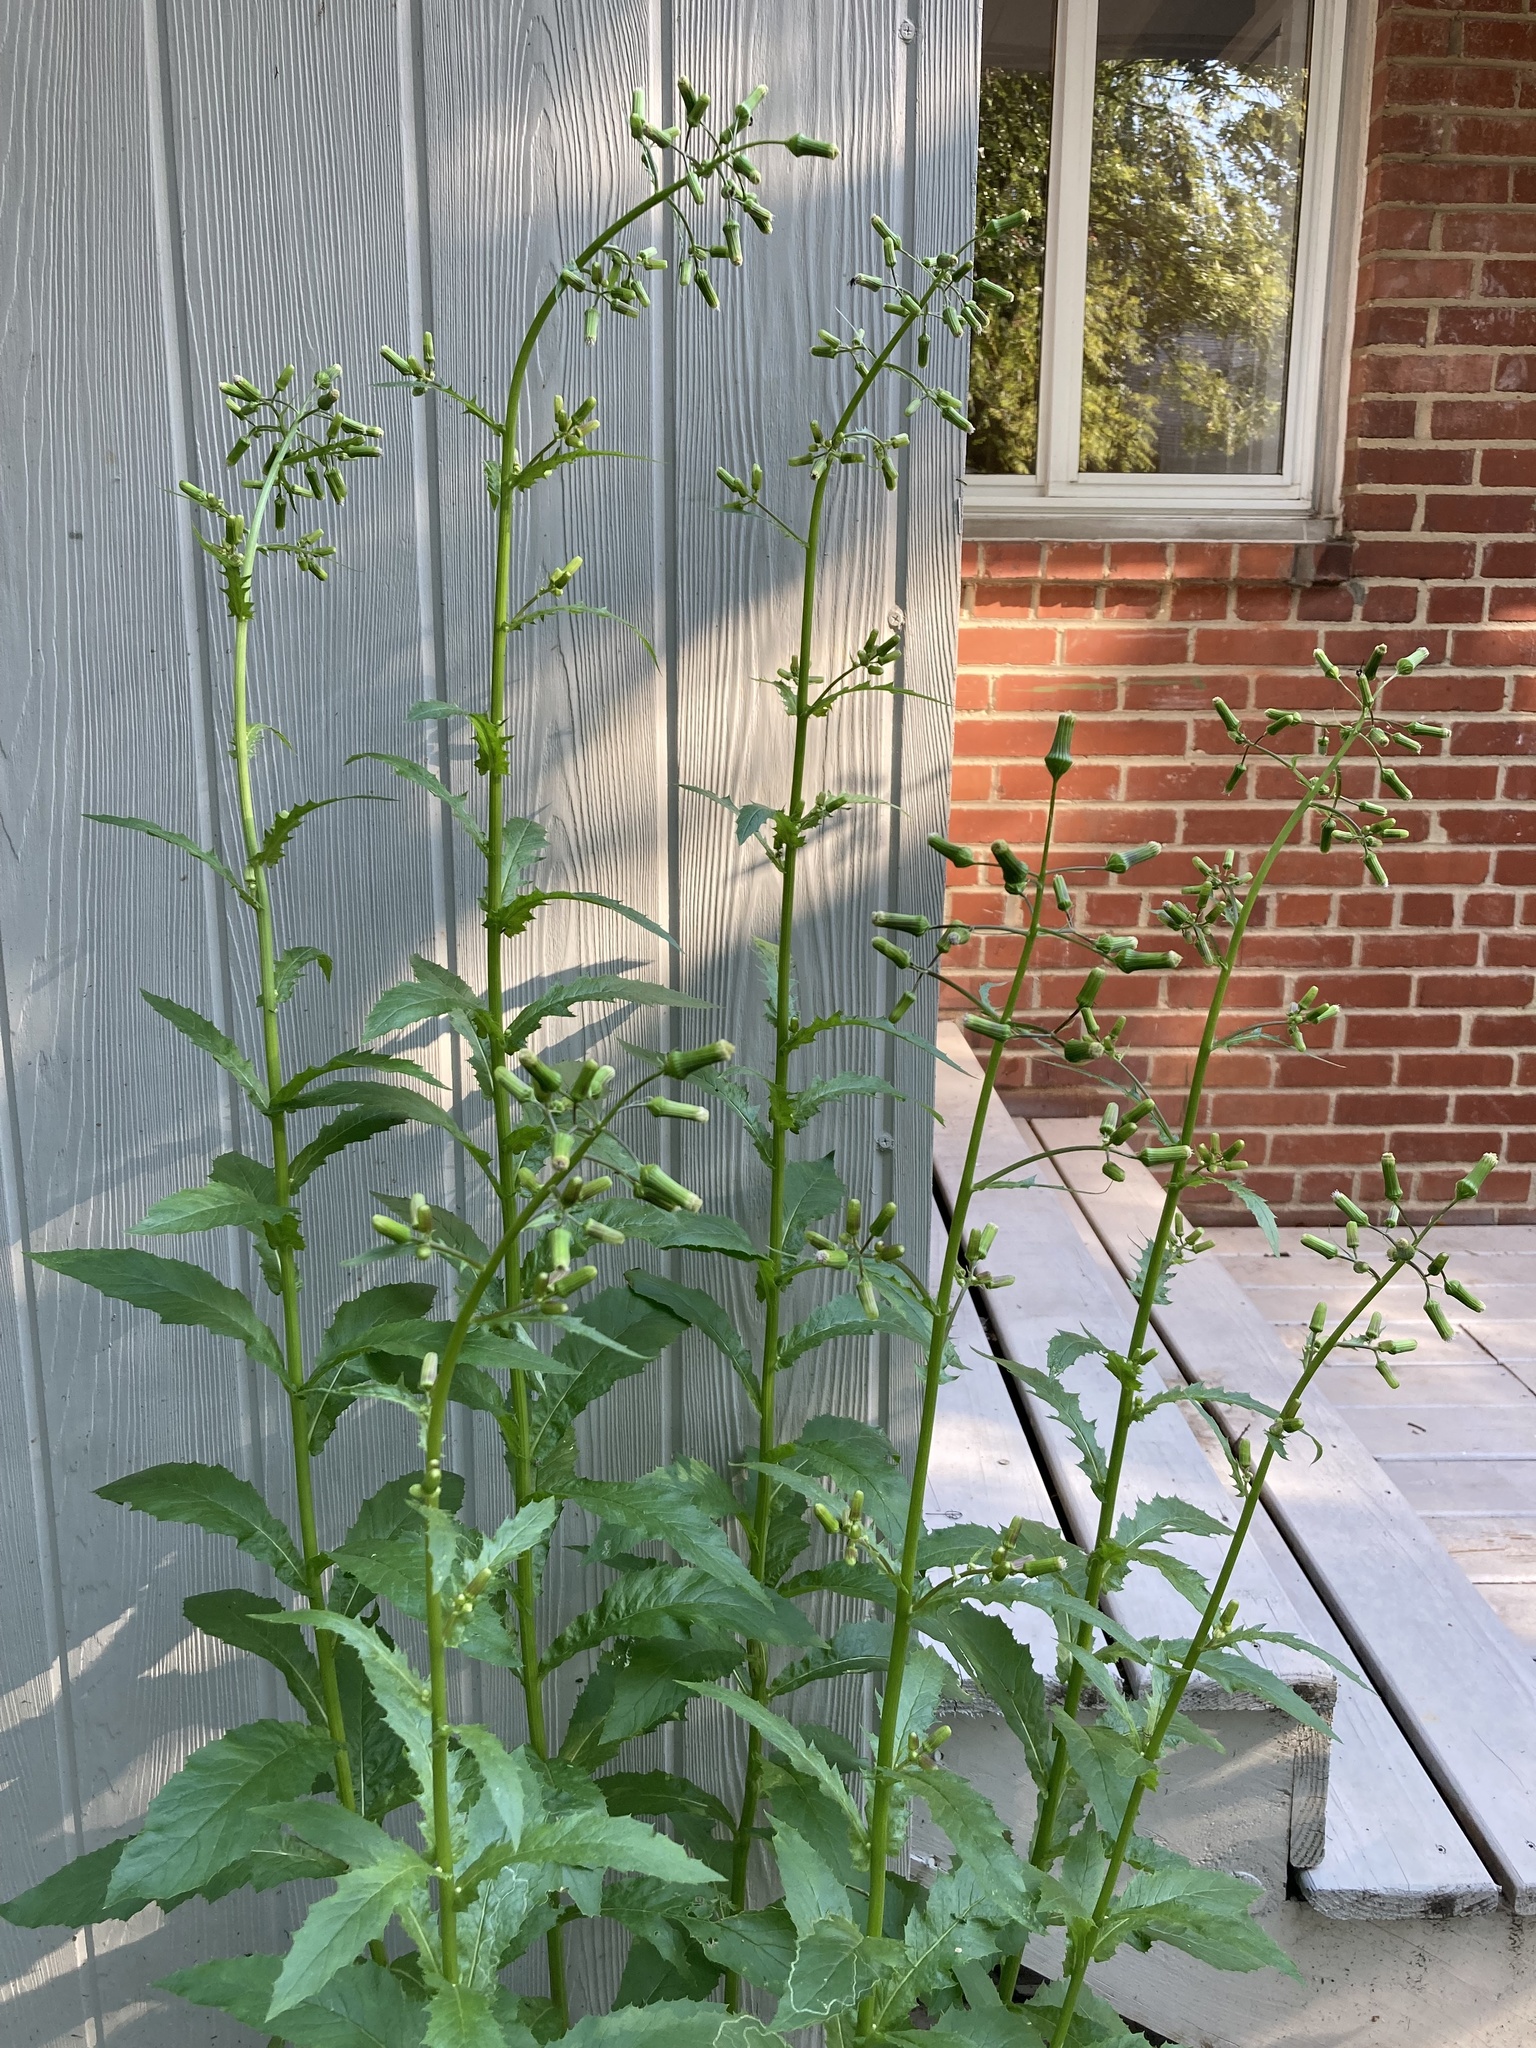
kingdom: Plantae
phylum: Tracheophyta
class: Magnoliopsida
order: Asterales
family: Asteraceae
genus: Erechtites
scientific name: Erechtites hieraciifolius
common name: American burnweed
